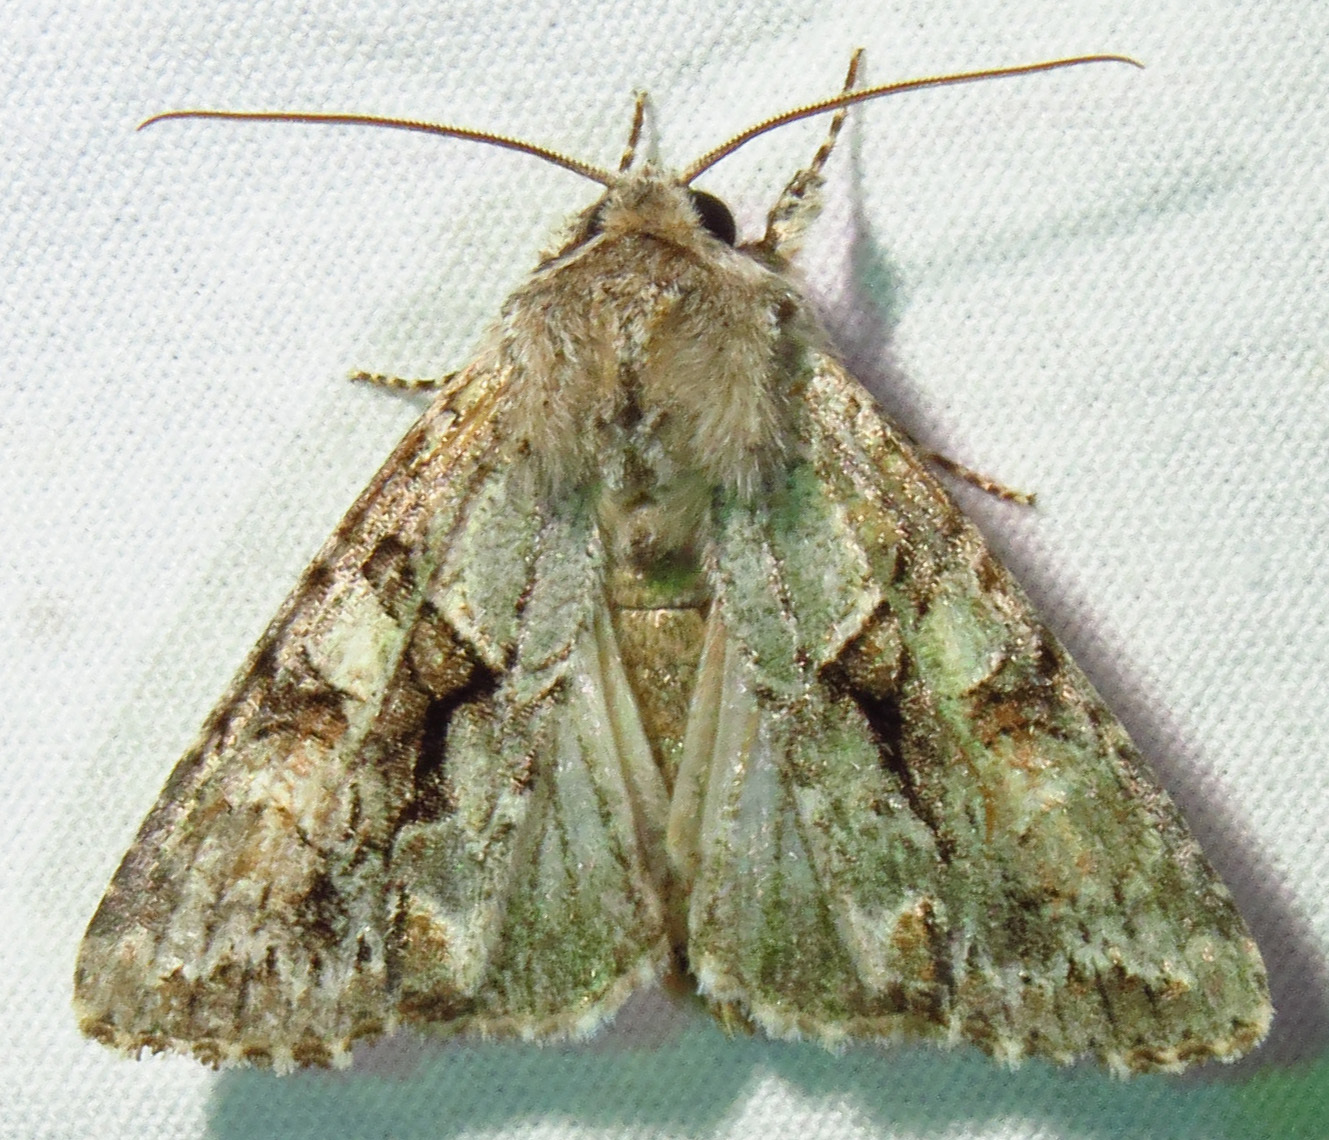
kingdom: Animalia
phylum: Arthropoda
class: Insecta
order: Lepidoptera
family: Noctuidae
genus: Achatia
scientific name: Achatia distincta
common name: Distinct quaker
